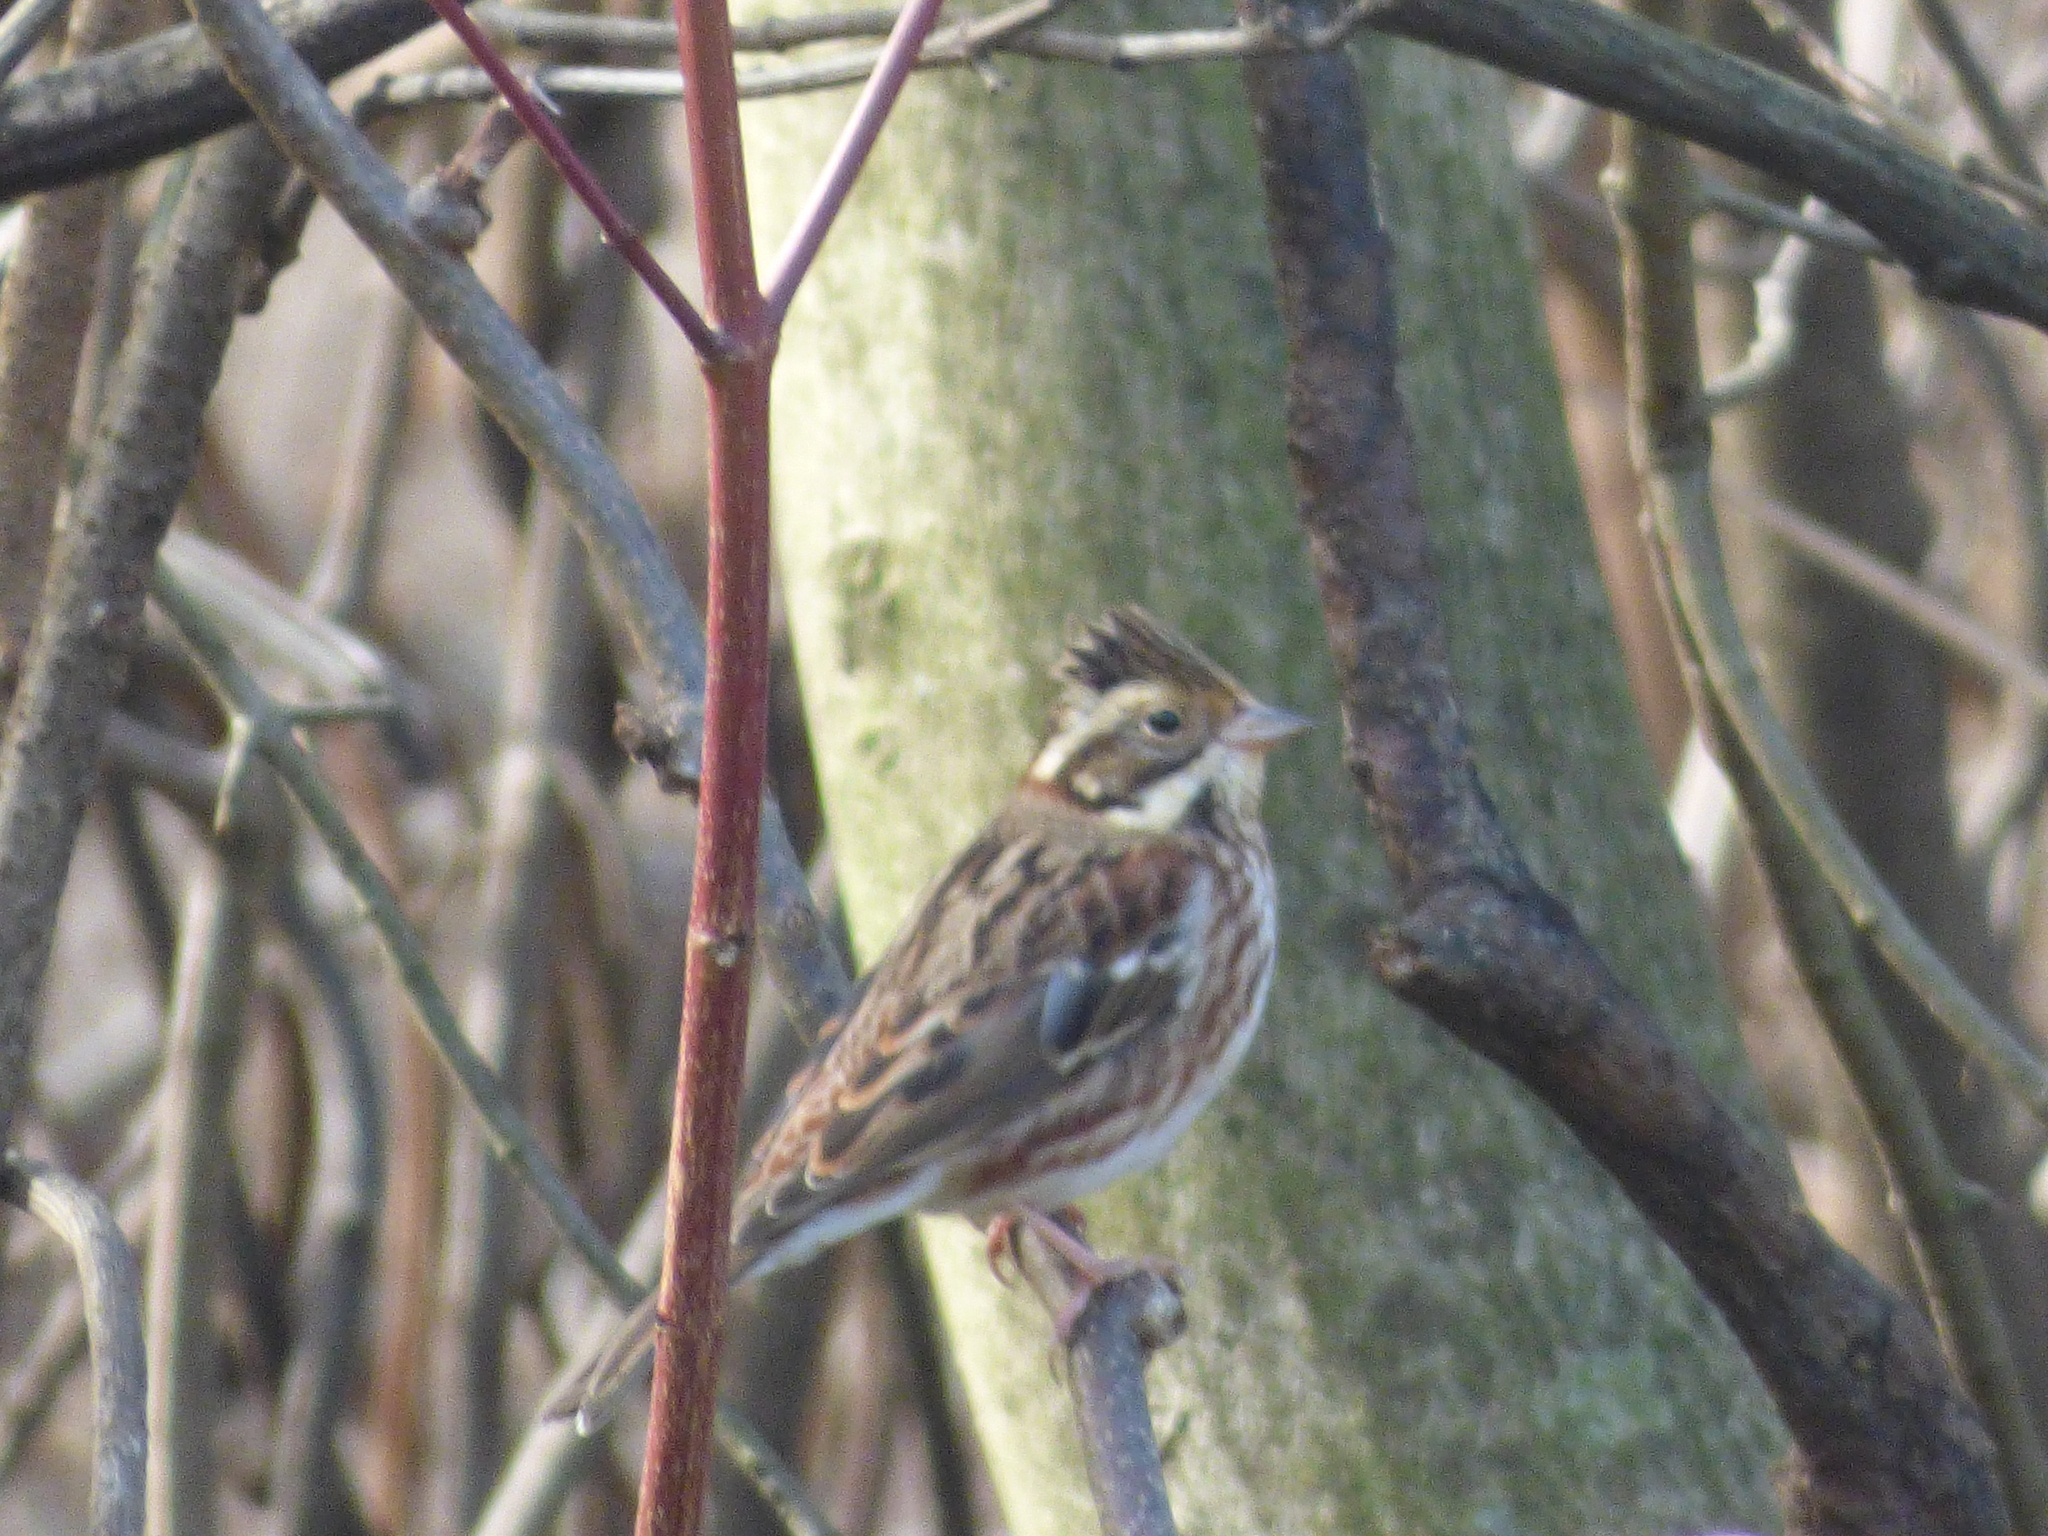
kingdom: Animalia
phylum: Chordata
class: Aves
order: Passeriformes
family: Emberizidae
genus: Emberiza
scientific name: Emberiza rustica
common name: Rustic bunting
